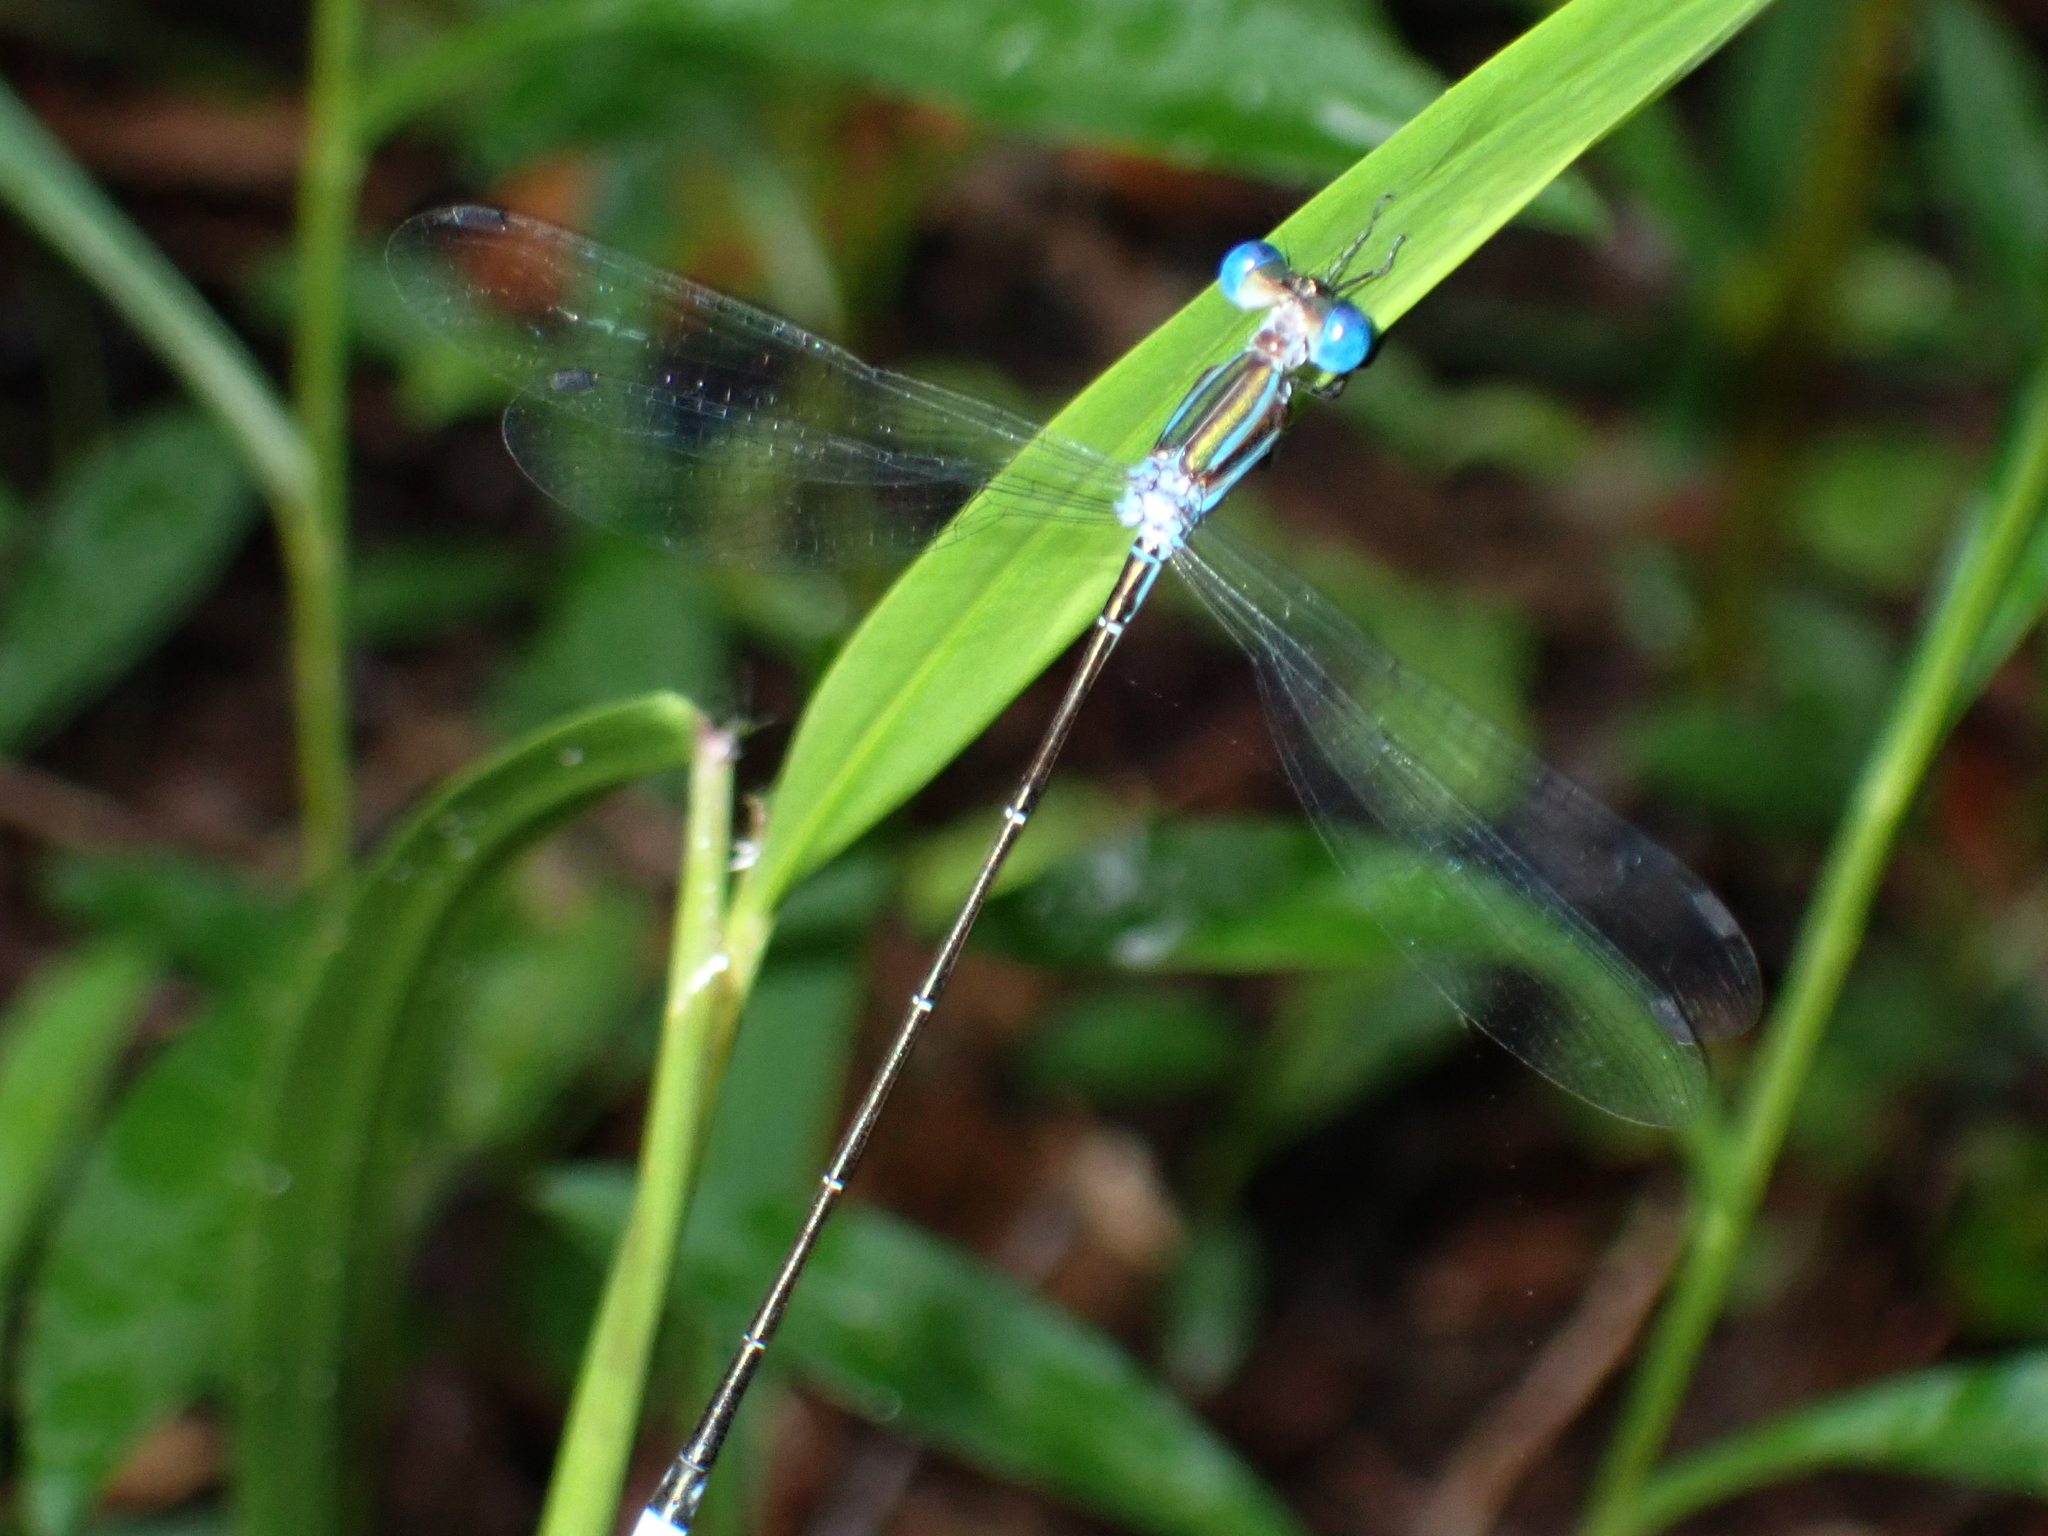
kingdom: Animalia
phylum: Arthropoda
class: Insecta
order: Odonata
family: Lestidae
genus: Lestes
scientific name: Lestes tenuatus
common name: Blue-striped spreadwing
